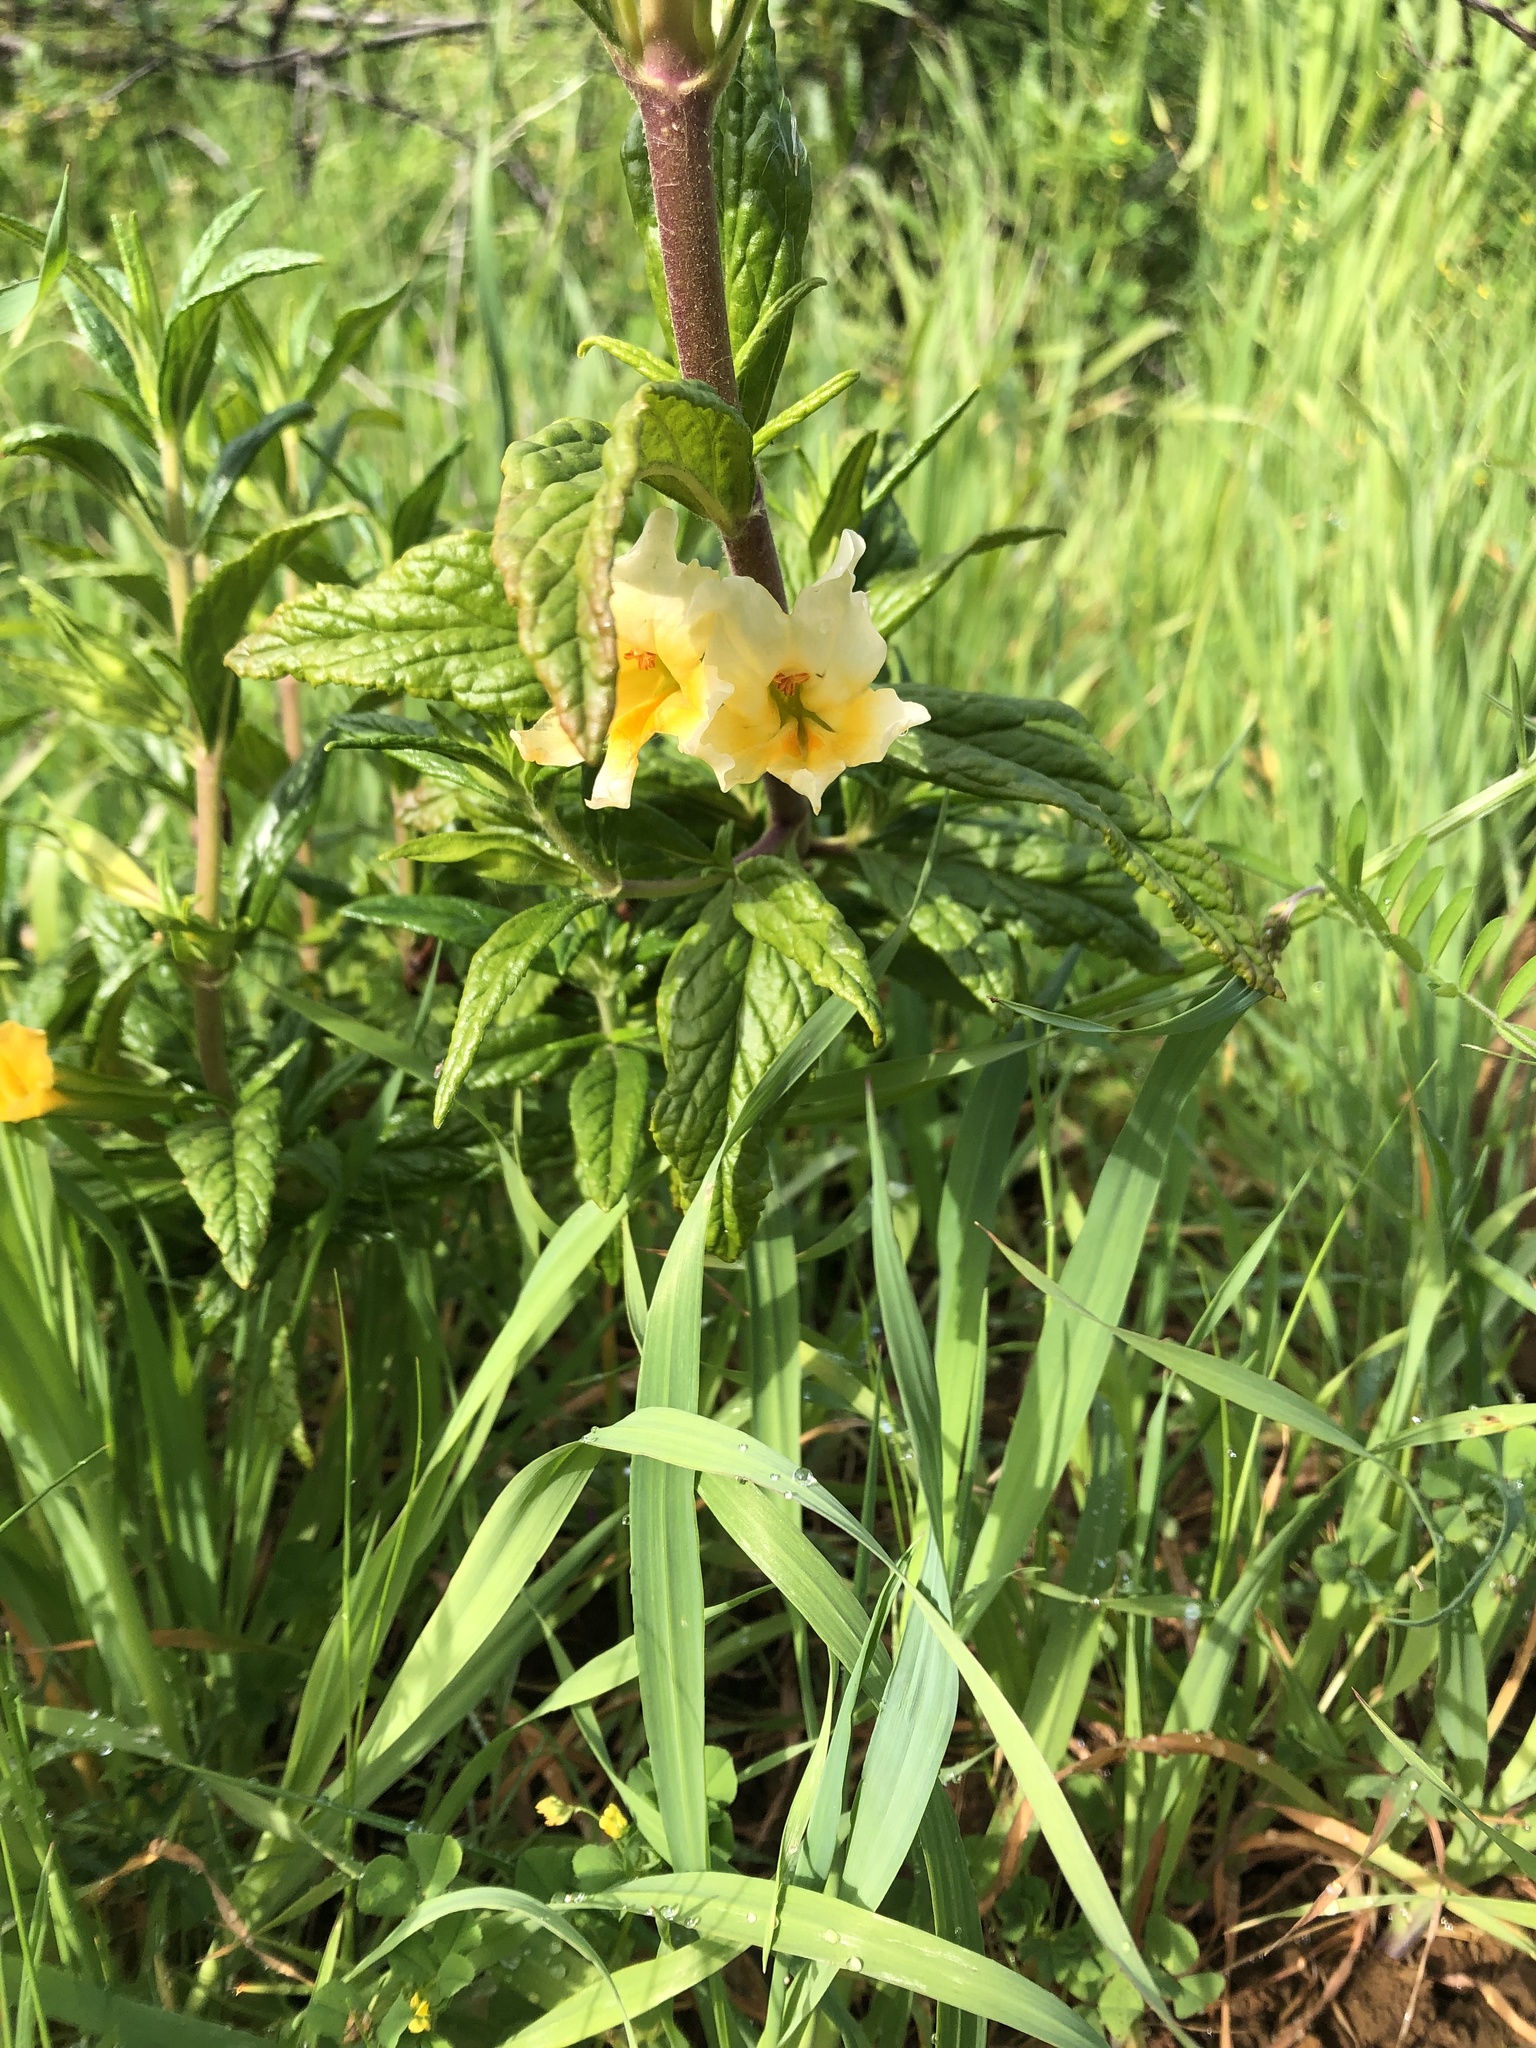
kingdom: Plantae
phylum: Tracheophyta
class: Magnoliopsida
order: Lamiales
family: Phrymaceae
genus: Diplacus
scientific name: Diplacus aurantiacus
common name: Bush monkey-flower
